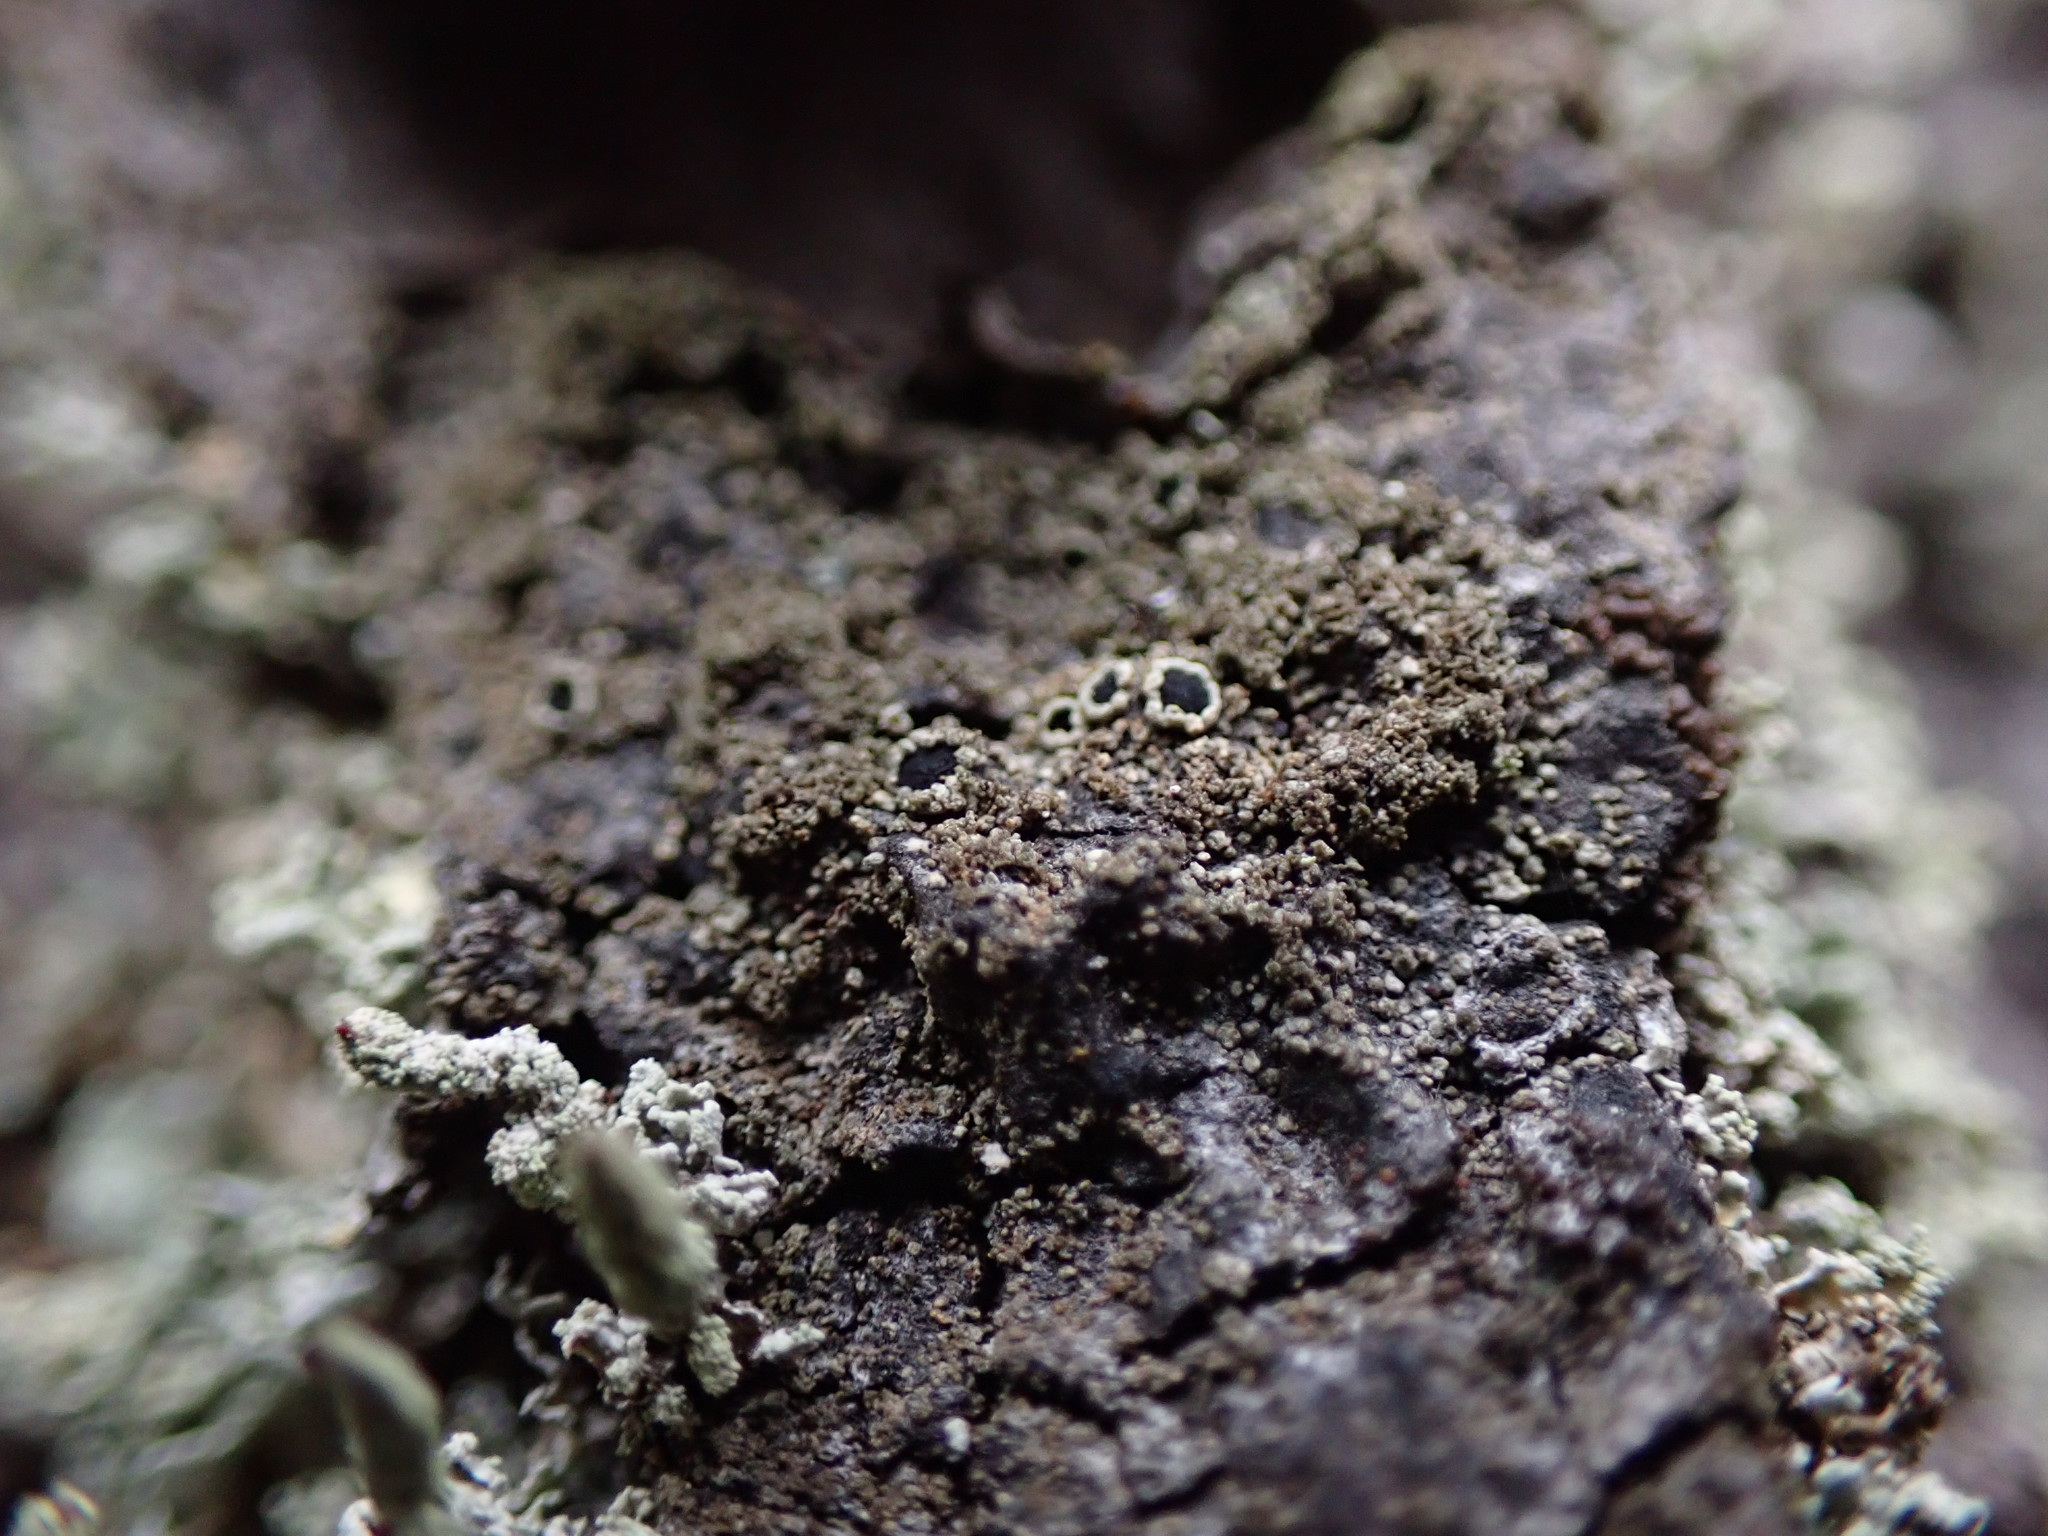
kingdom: Fungi
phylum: Ascomycota
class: Lecanoromycetes
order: Caliciales
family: Physciaceae
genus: Rinodina
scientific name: Rinodina disjuncta
